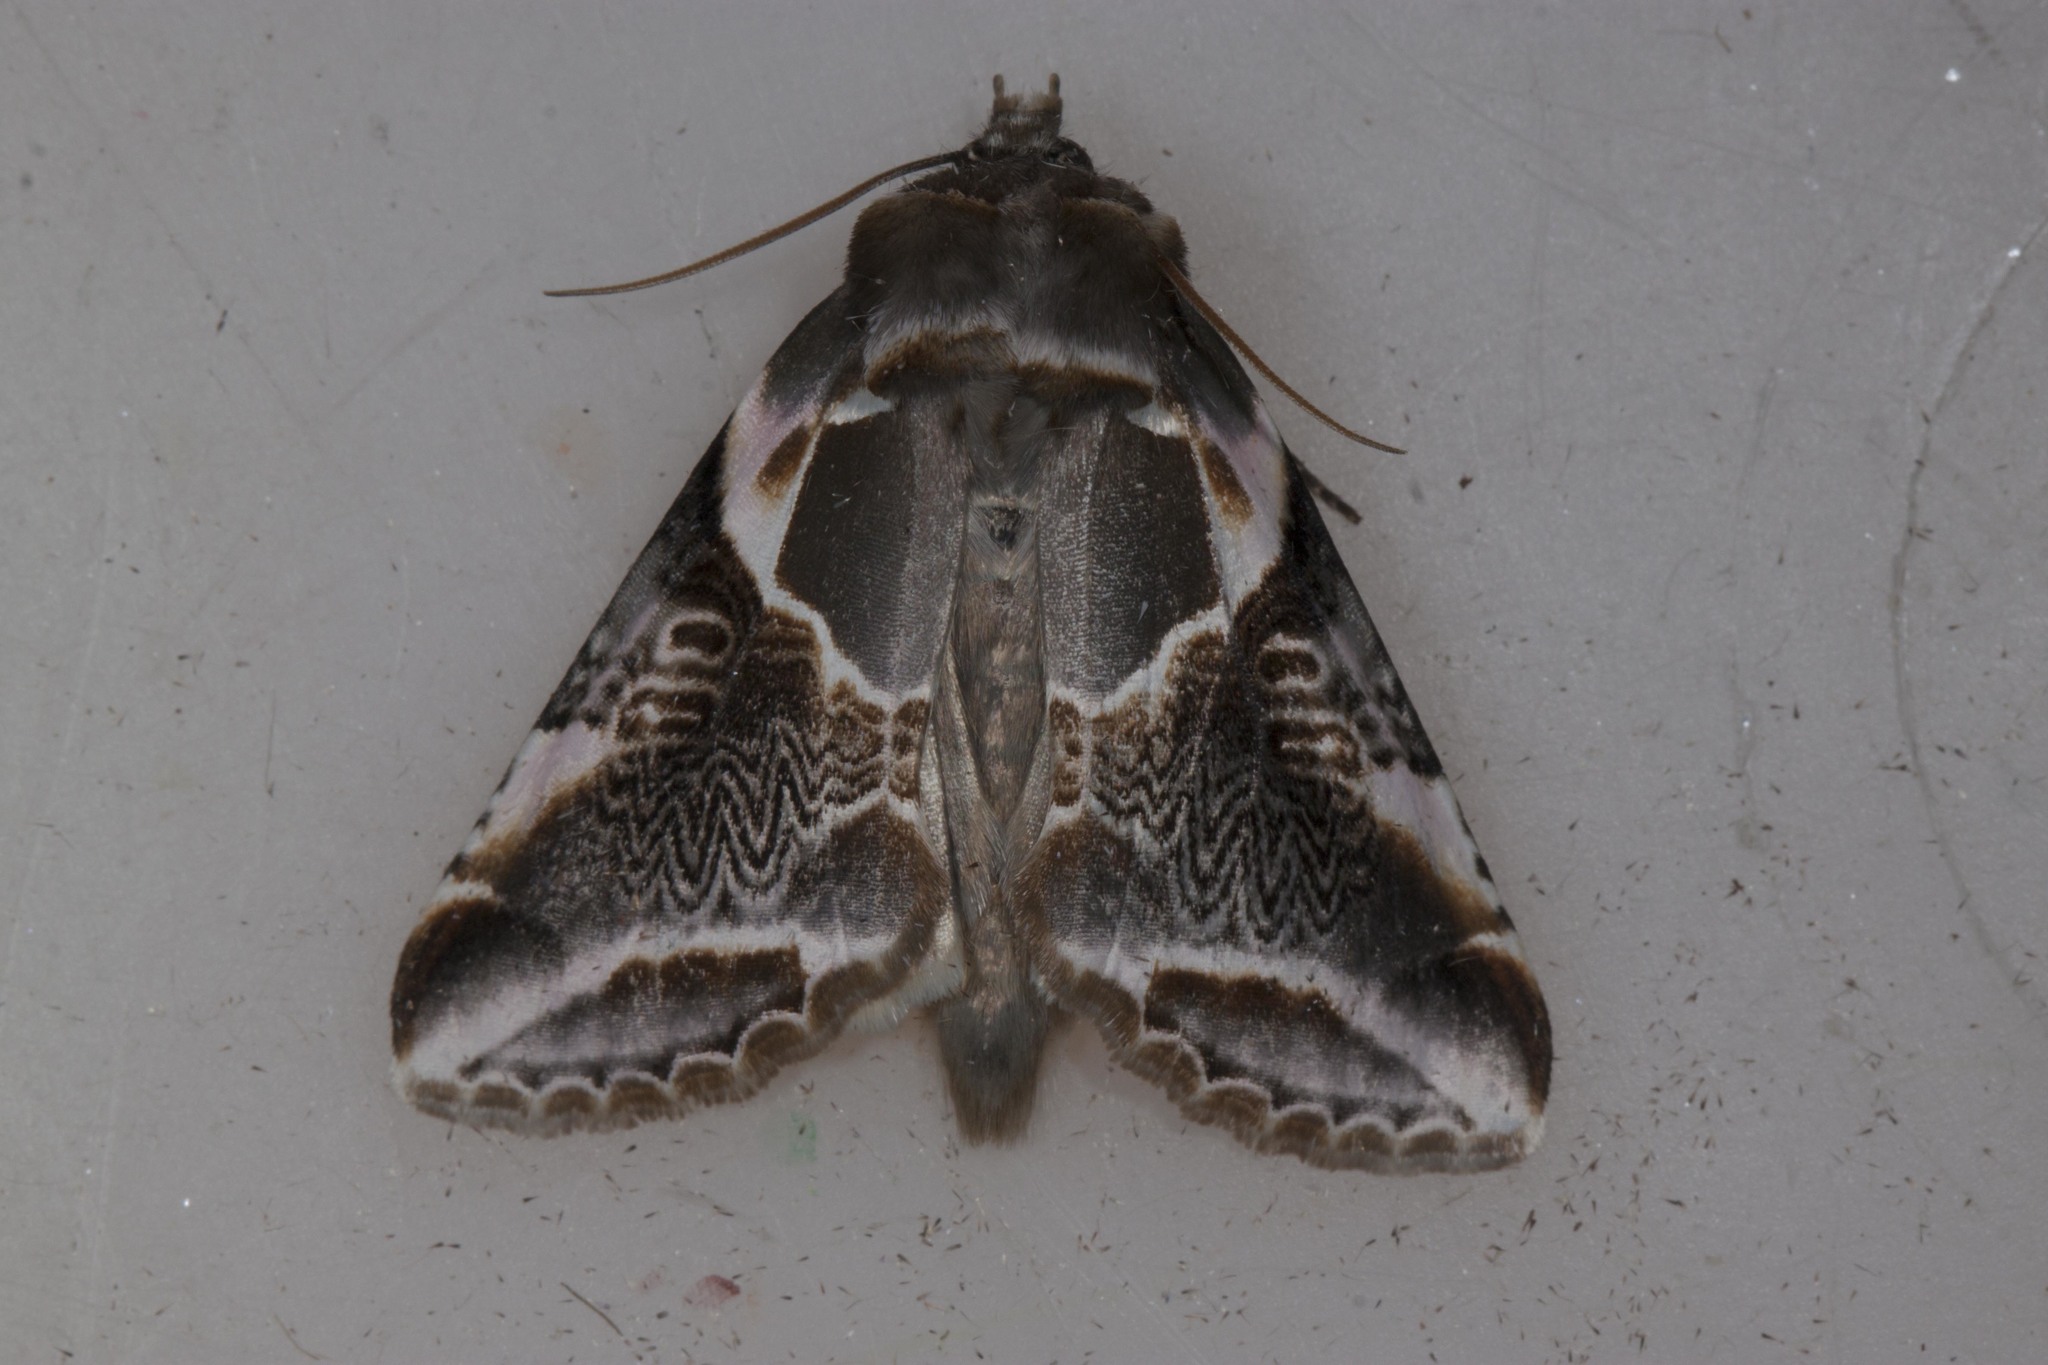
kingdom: Animalia
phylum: Arthropoda
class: Insecta
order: Lepidoptera
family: Drepanidae
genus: Habrosyne
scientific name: Habrosyne scripta
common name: Lettered habrosyne moth
